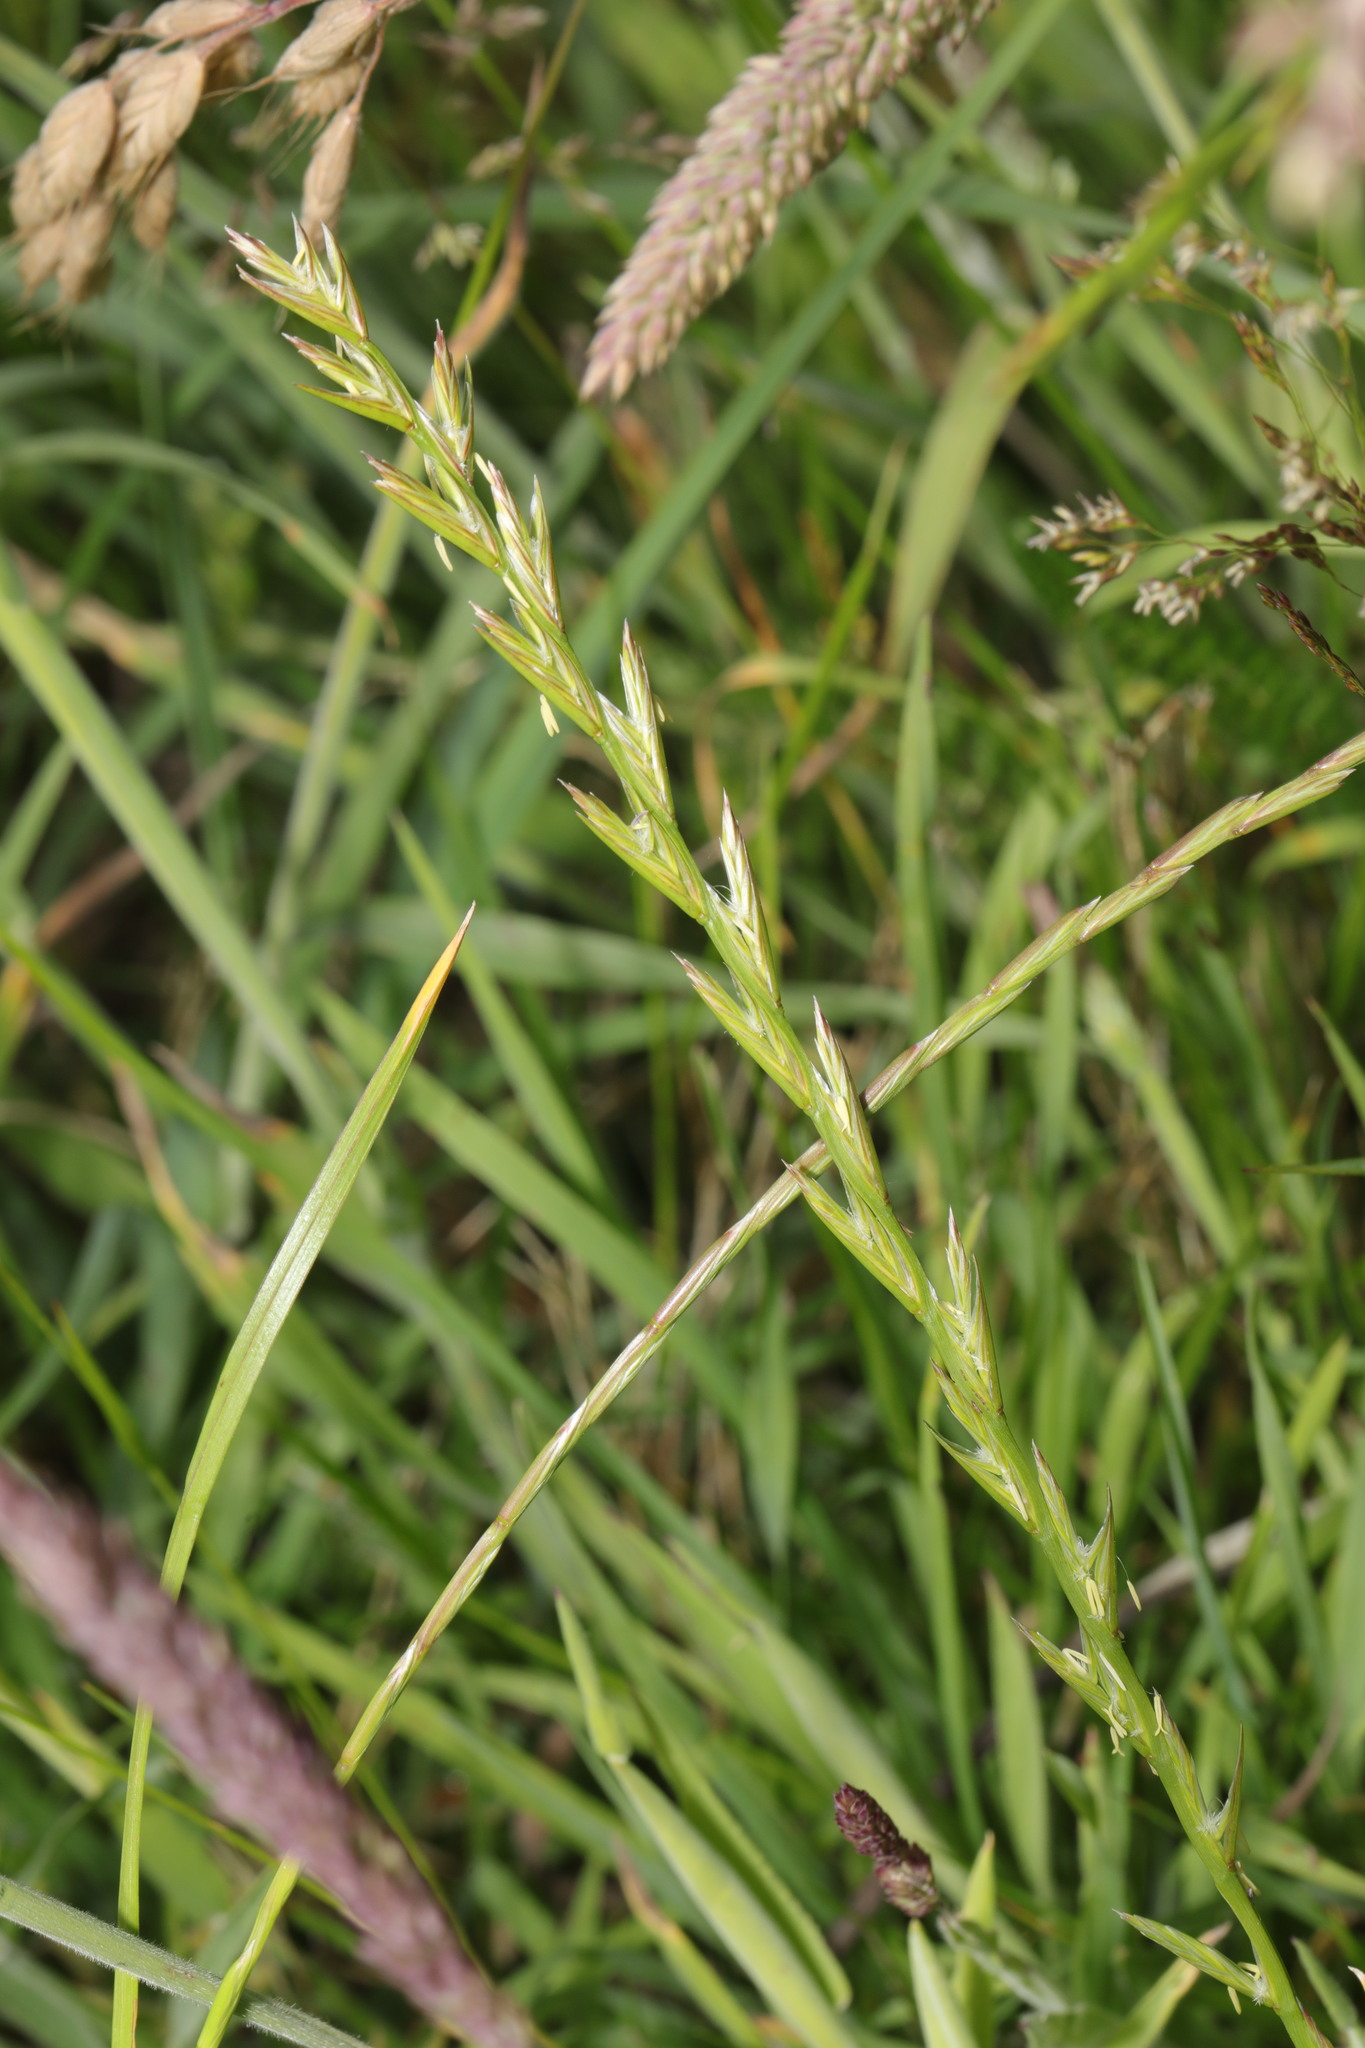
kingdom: Plantae
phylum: Tracheophyta
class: Liliopsida
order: Poales
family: Poaceae
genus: Lolium
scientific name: Lolium perenne
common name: Perennial ryegrass
